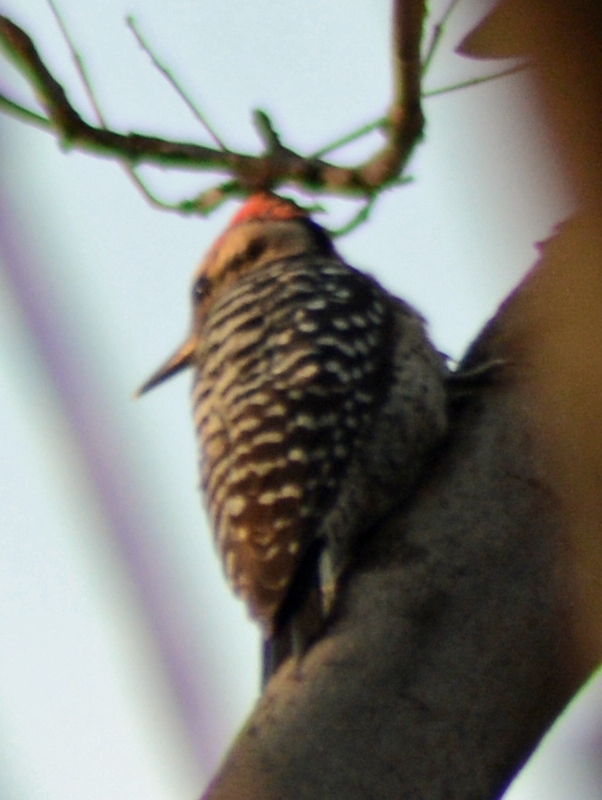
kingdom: Animalia
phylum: Chordata
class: Aves
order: Piciformes
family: Picidae
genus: Dryobates
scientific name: Dryobates scalaris
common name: Ladder-backed woodpecker
